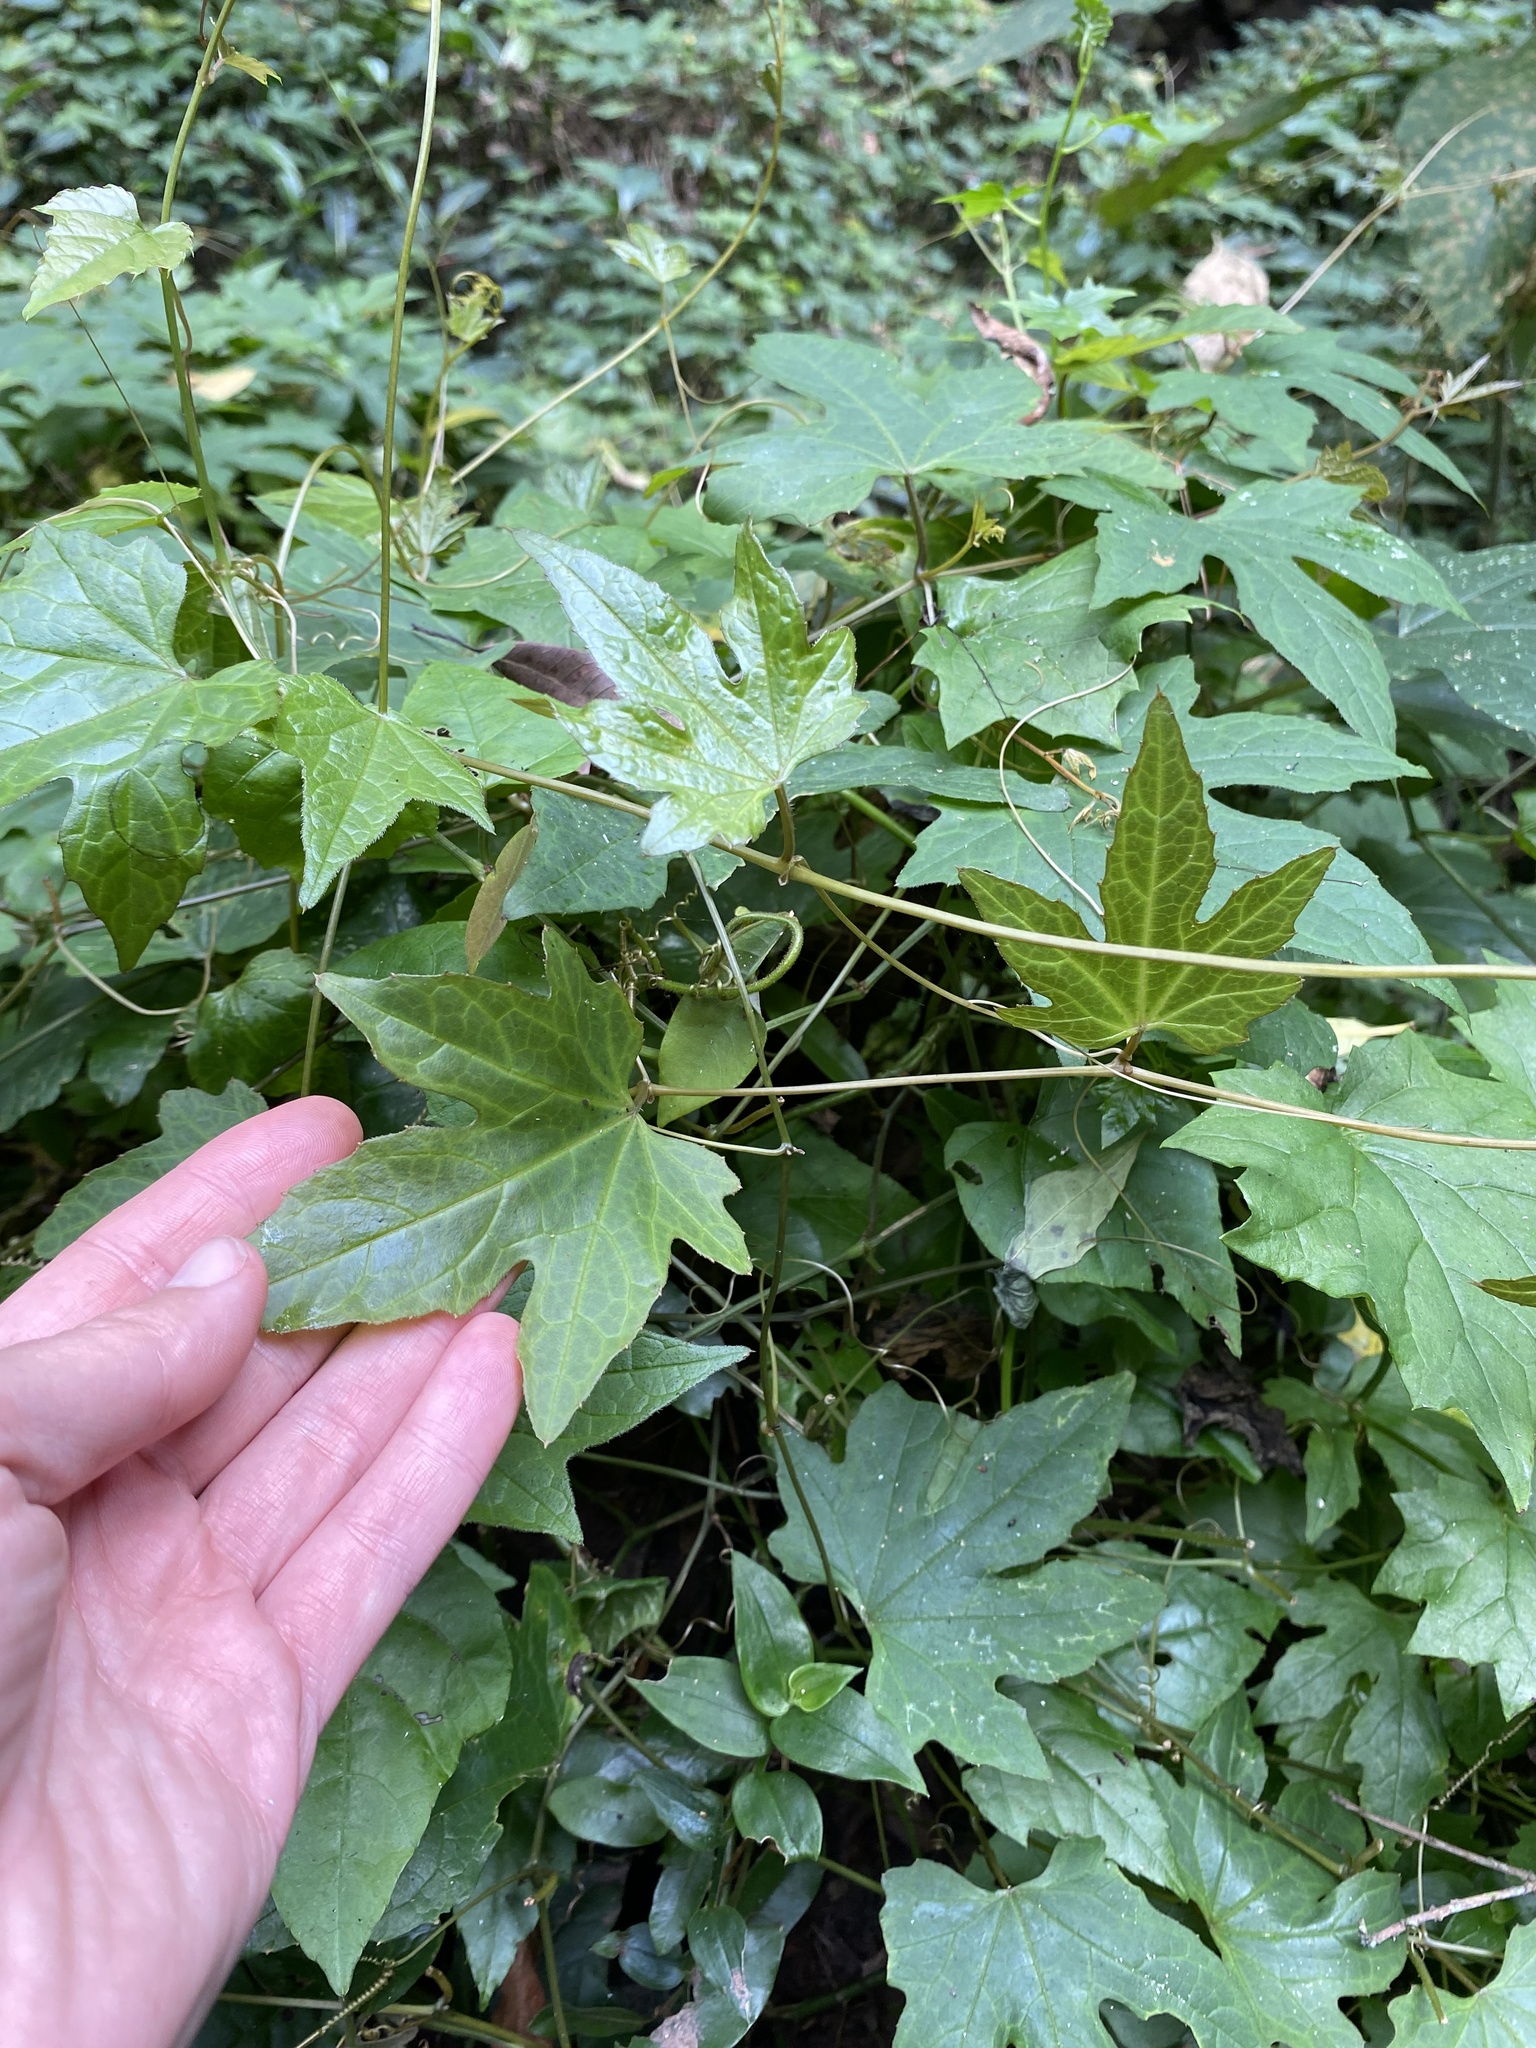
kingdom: Plantae
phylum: Tracheophyta
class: Magnoliopsida
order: Cucurbitales
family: Cucurbitaceae
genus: Coccinia
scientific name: Coccinia palmata
